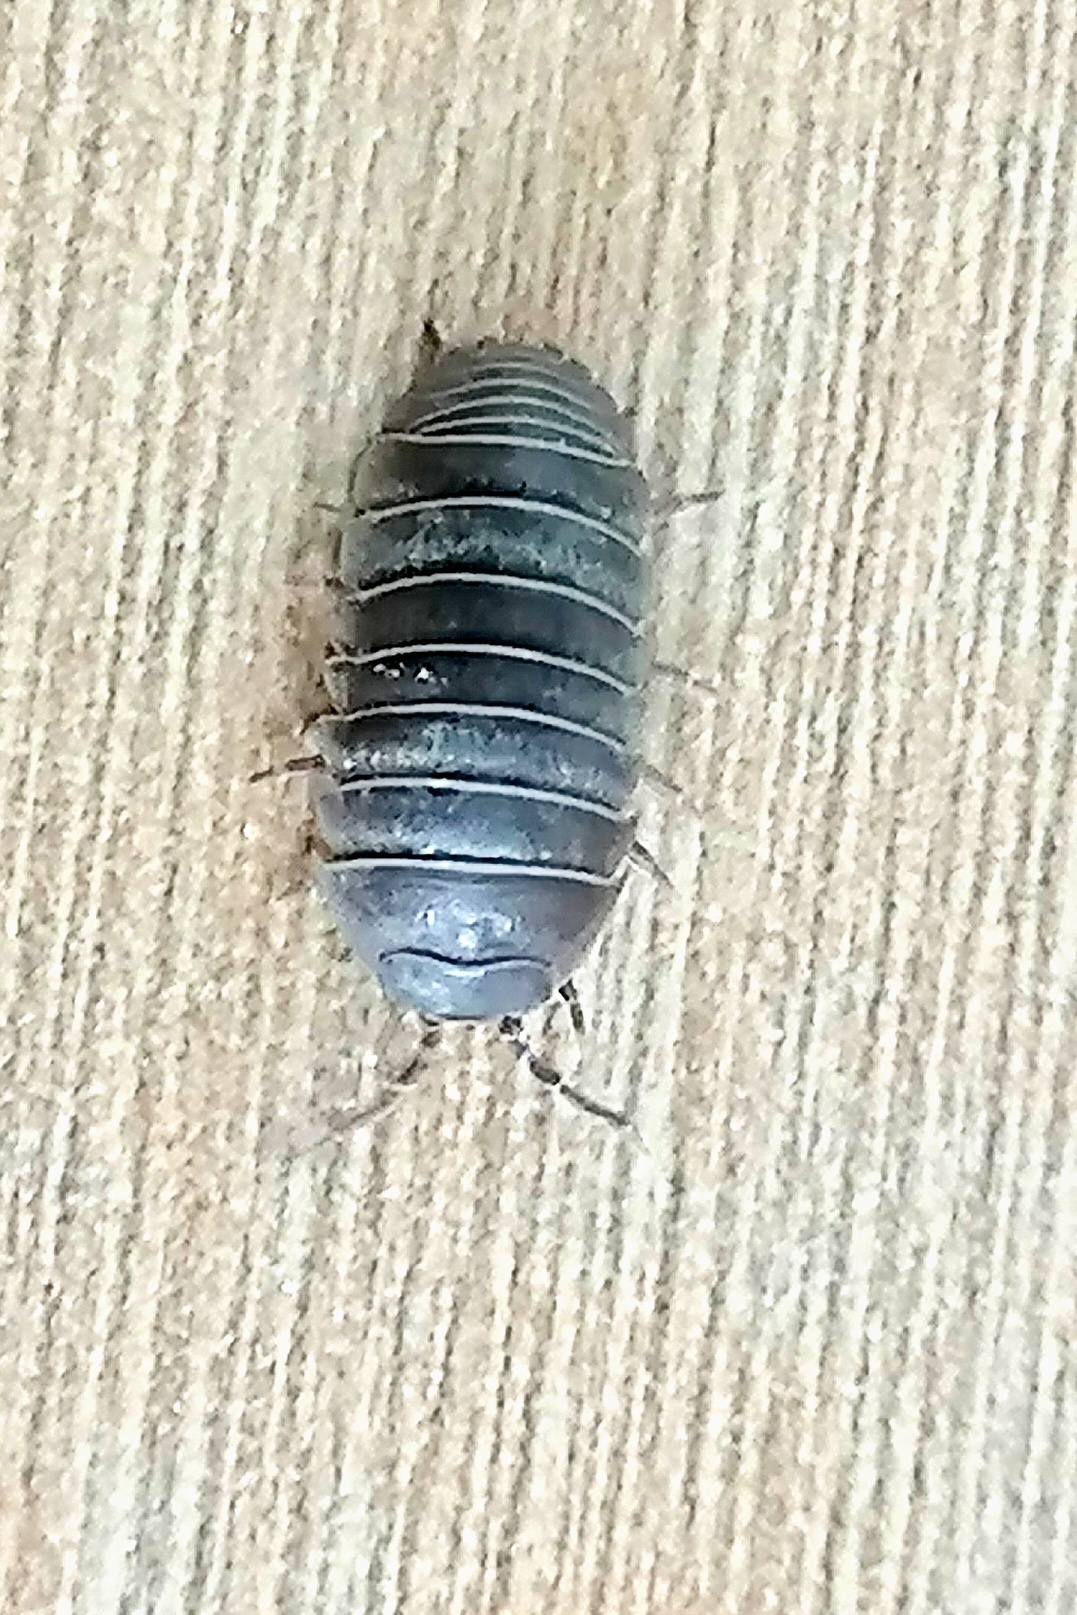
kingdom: Animalia
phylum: Arthropoda
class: Malacostraca
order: Isopoda
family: Armadillidiidae
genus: Armadillidium
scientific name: Armadillidium vulgare
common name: Common pill woodlouse
